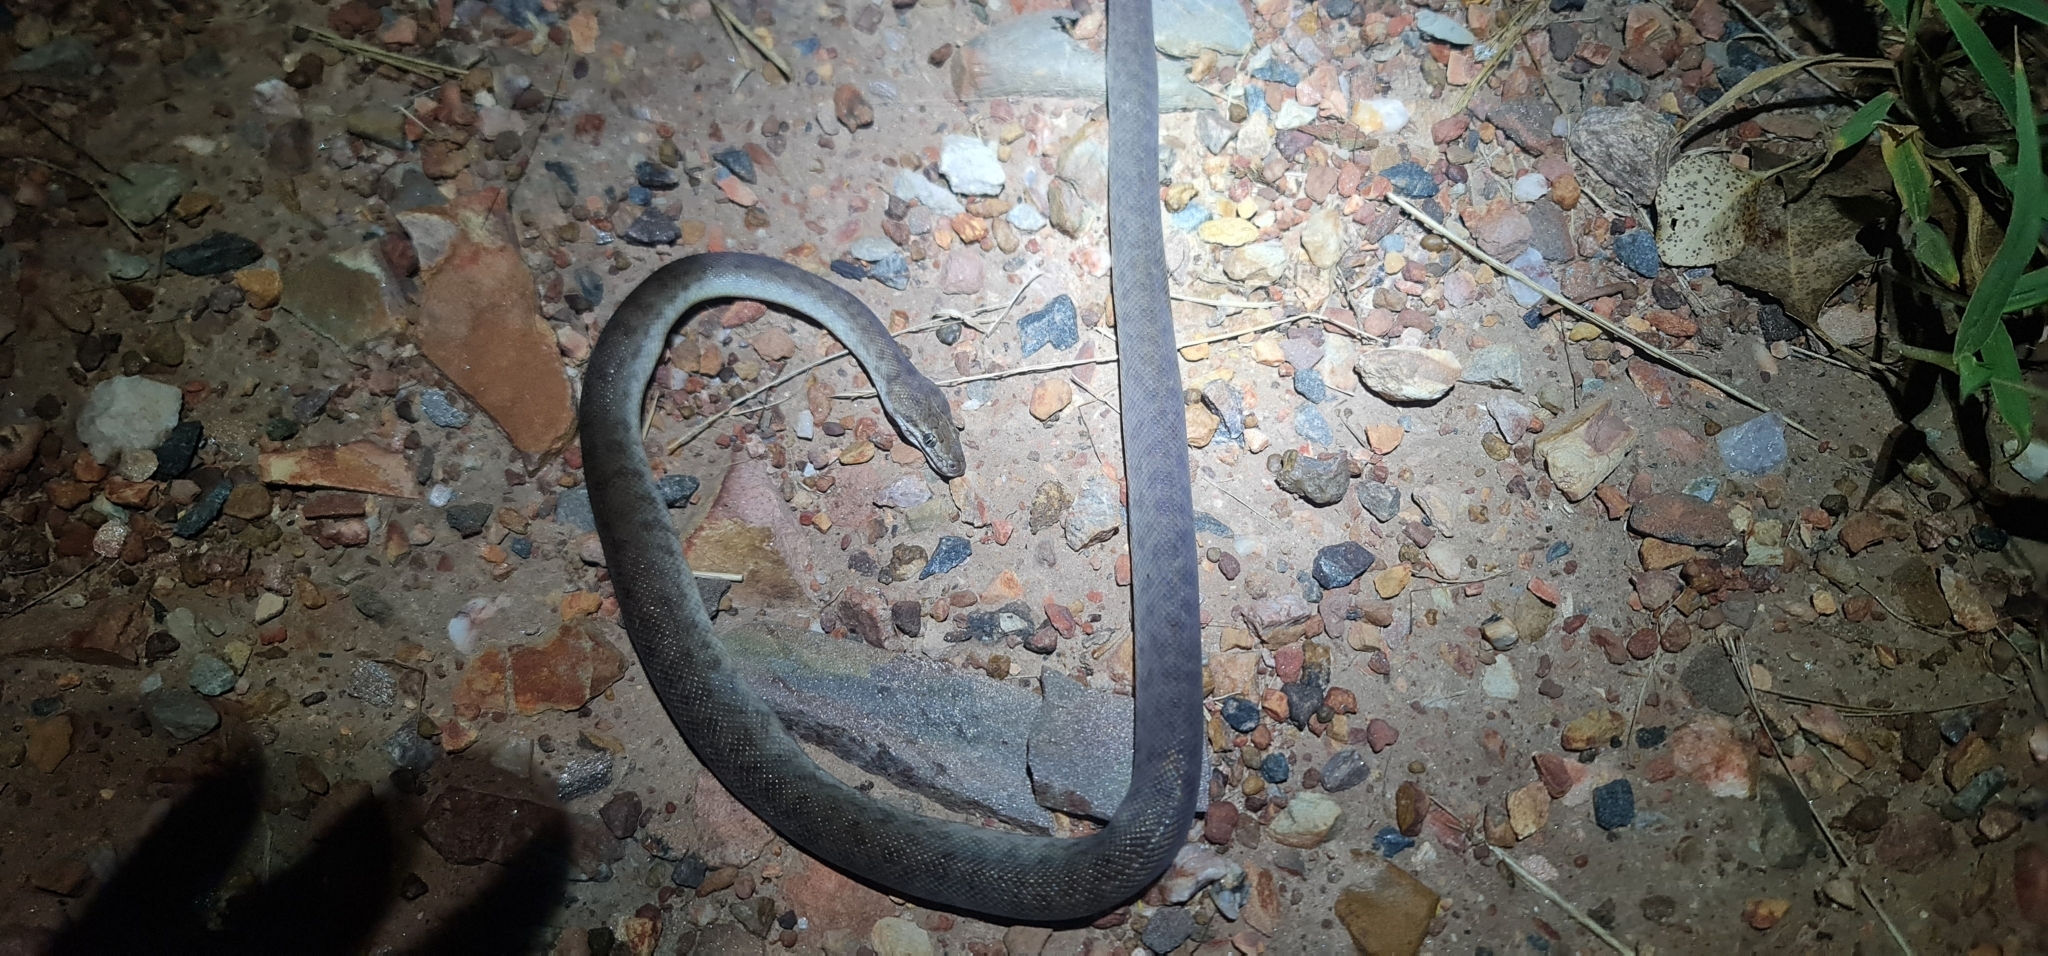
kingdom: Animalia
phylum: Chordata
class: Squamata
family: Pythonidae
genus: Antaresia
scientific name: Antaresia childreni
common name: Children's python
